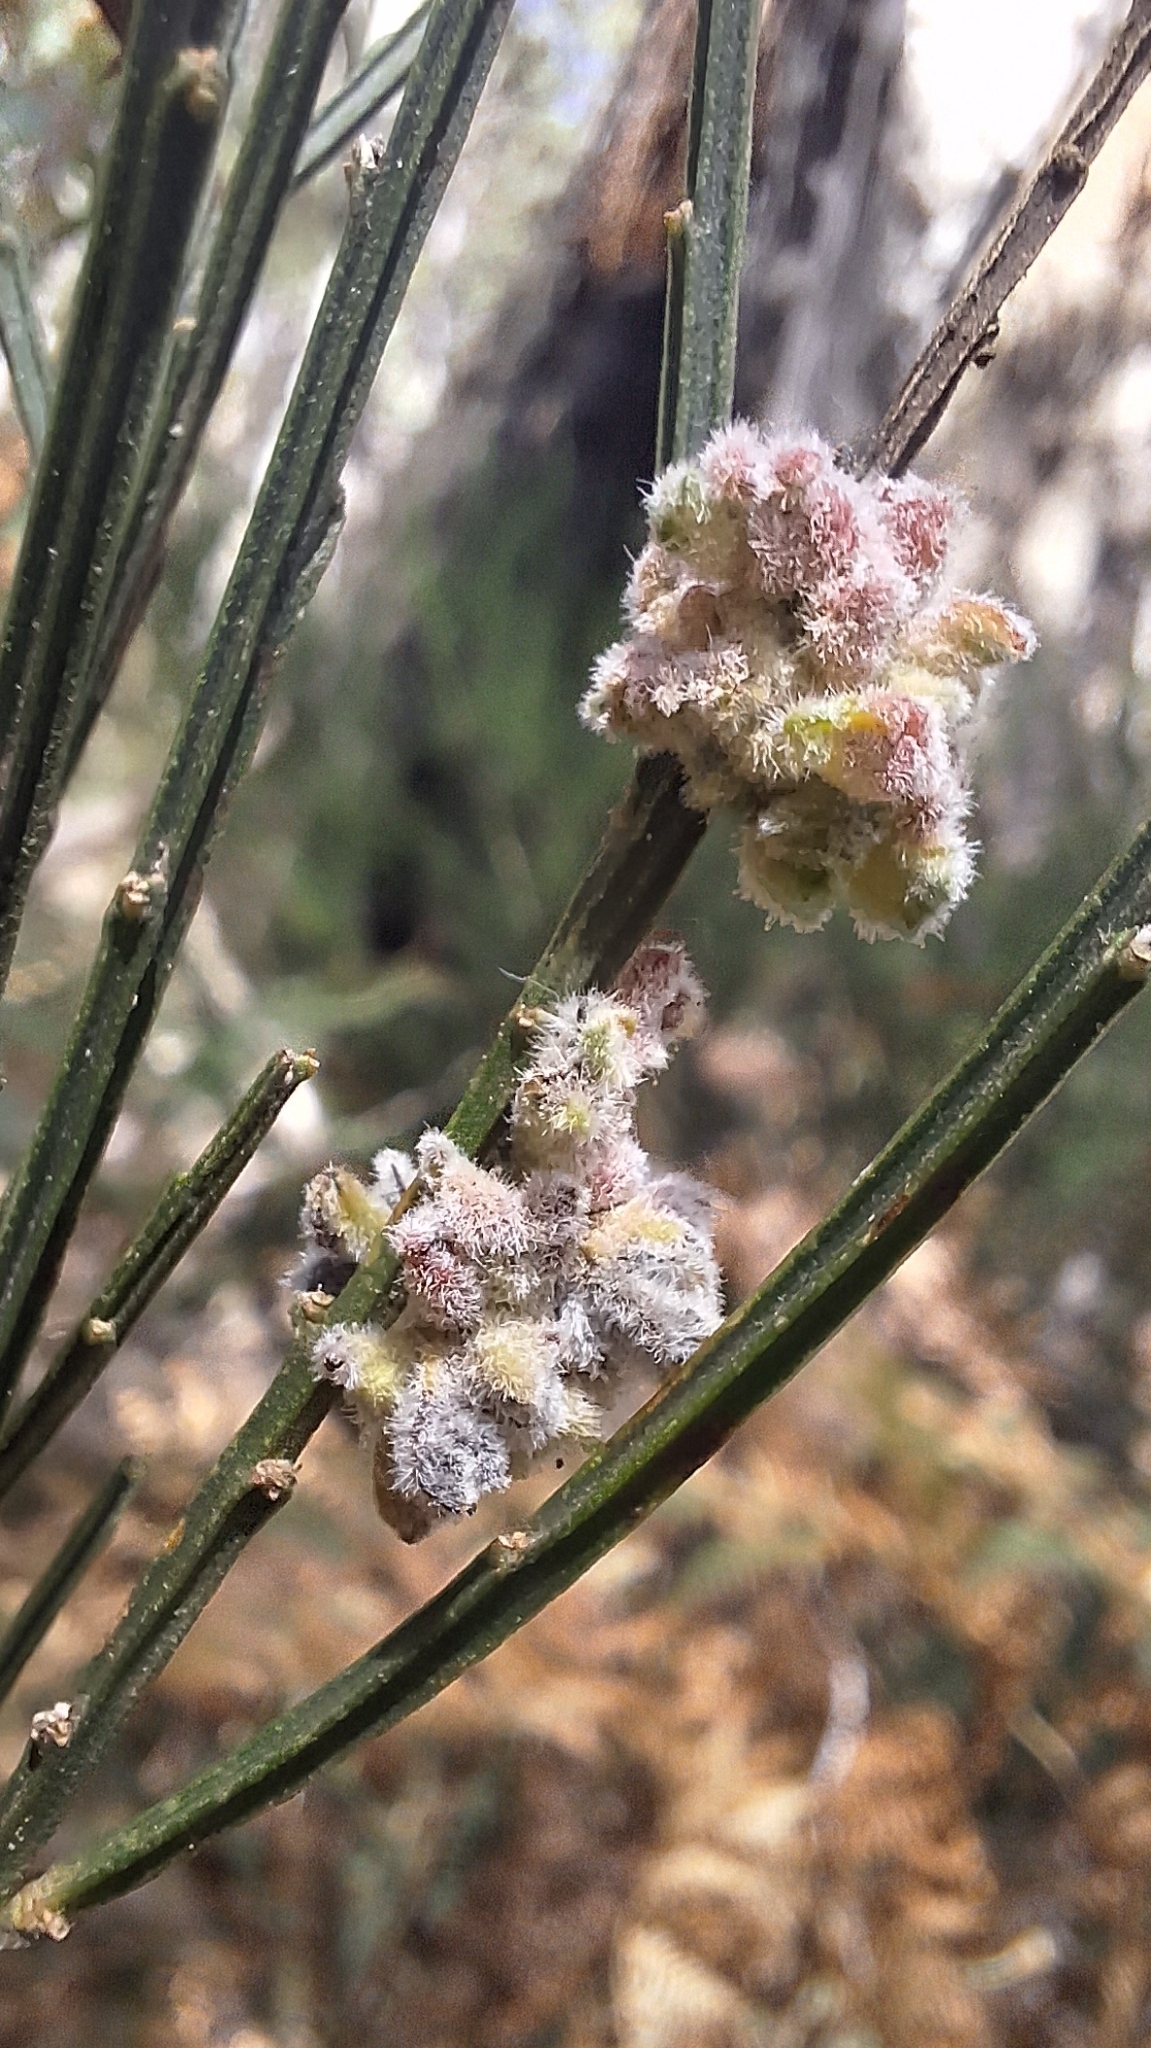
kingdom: Animalia
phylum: Arthropoda
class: Arachnida
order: Trombidiformes
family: Eriophyidae
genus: Aceria
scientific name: Aceria genistae
